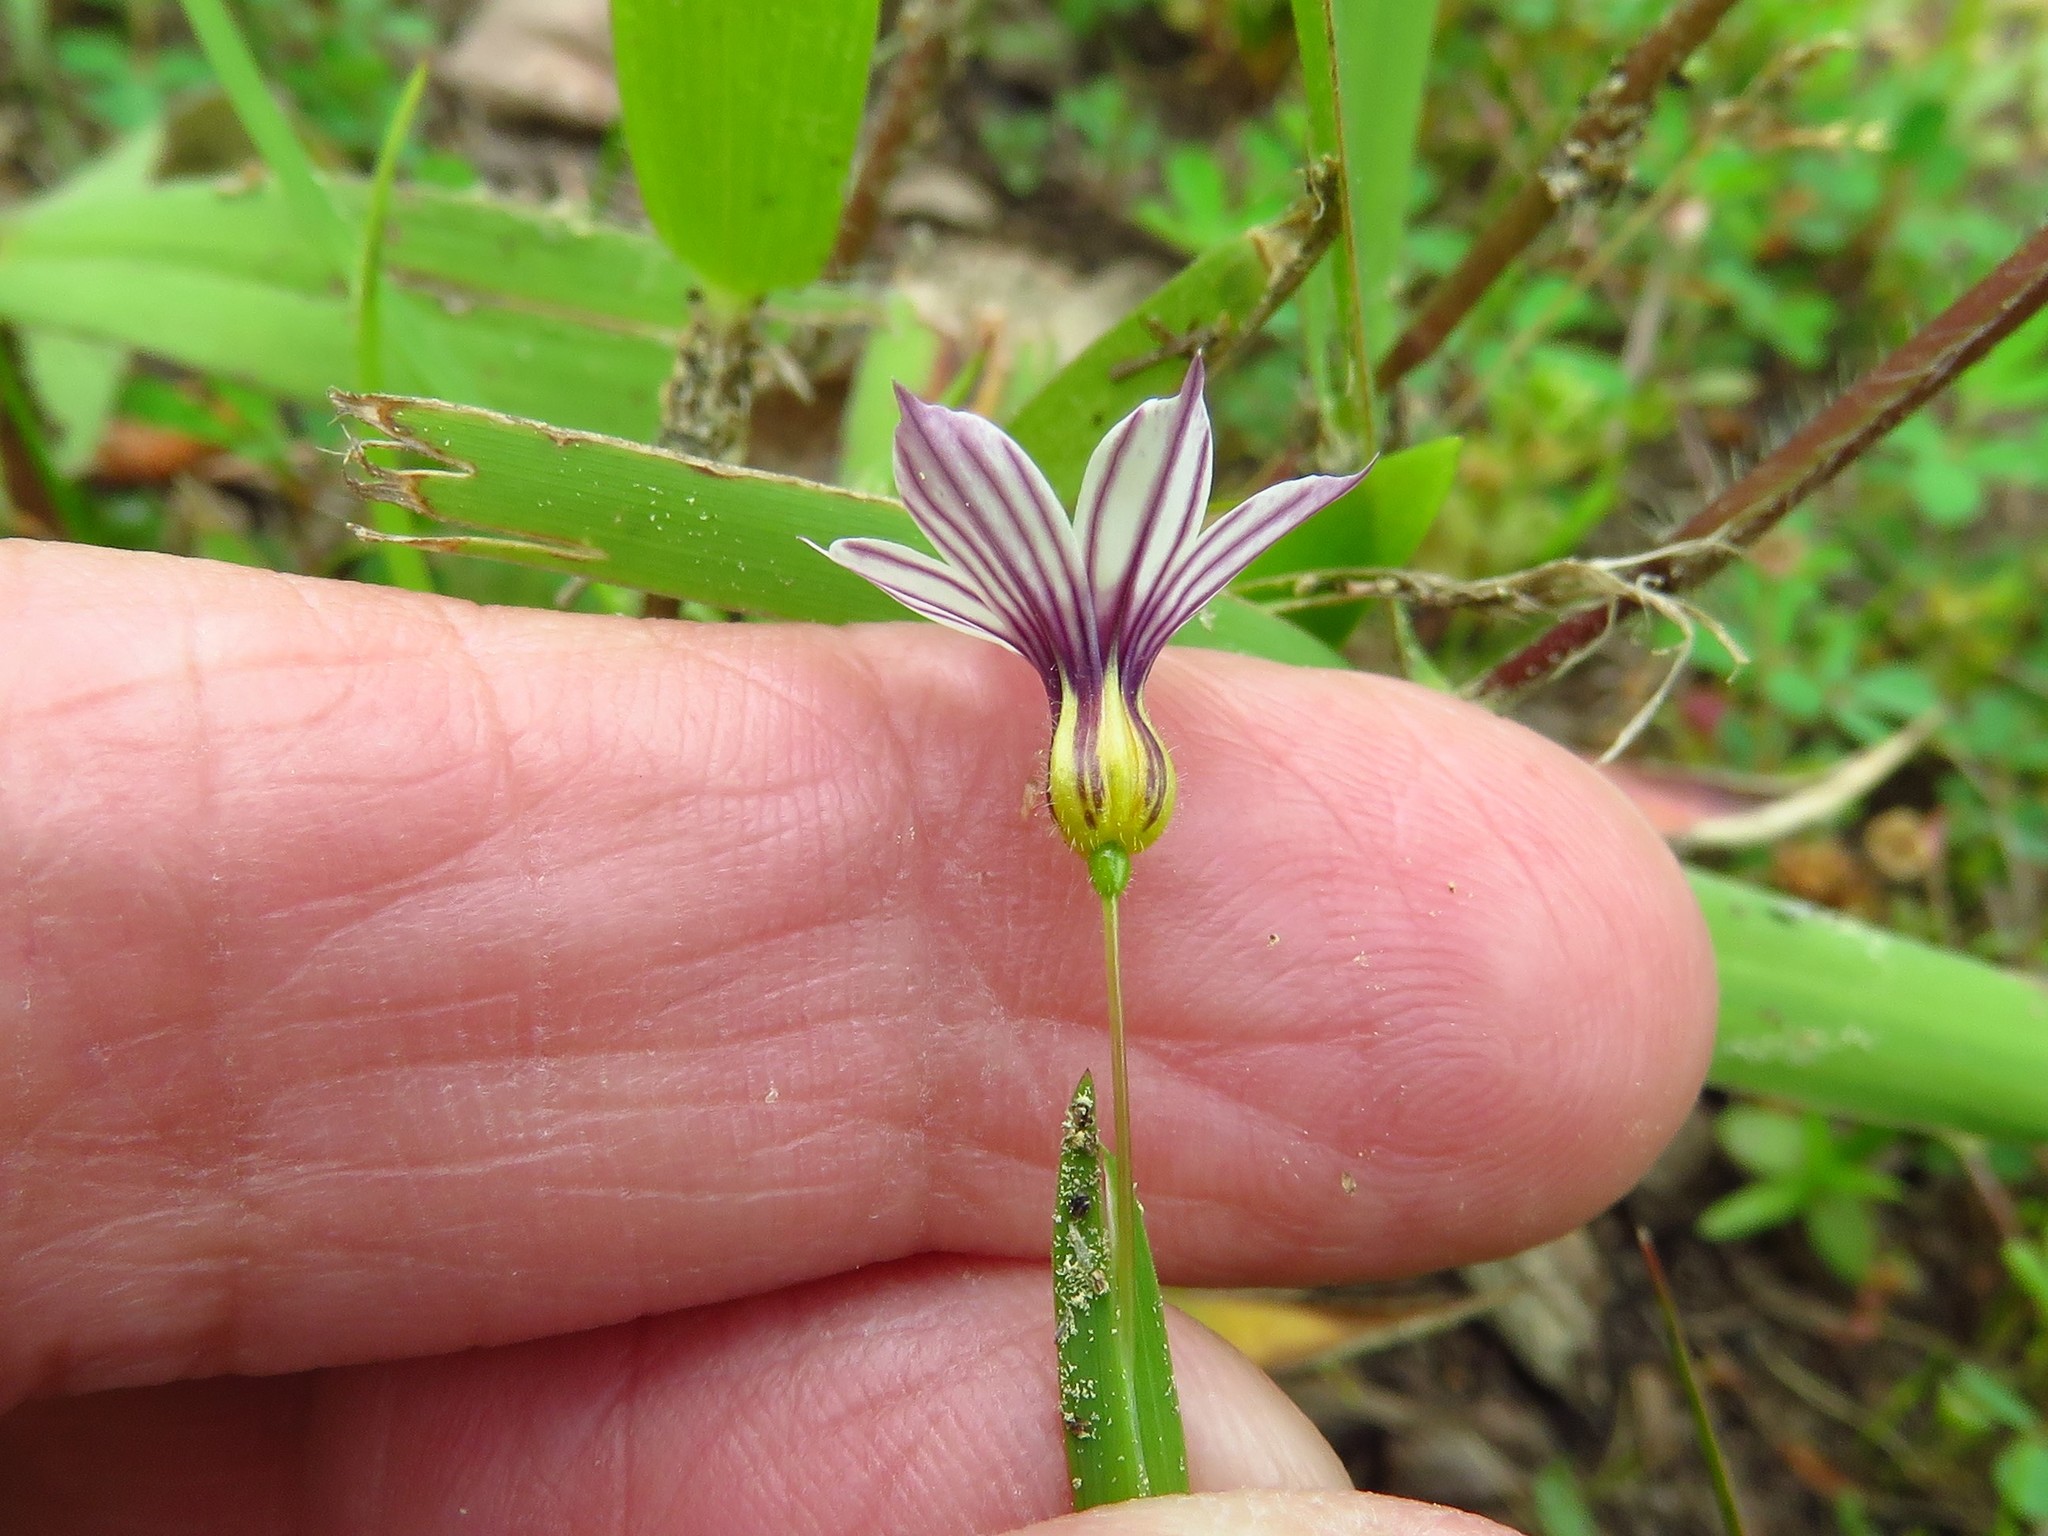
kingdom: Plantae
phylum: Tracheophyta
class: Liliopsida
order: Asparagales
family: Iridaceae
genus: Sisyrinchium
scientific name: Sisyrinchium micranthum
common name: Bermuda pigroot
